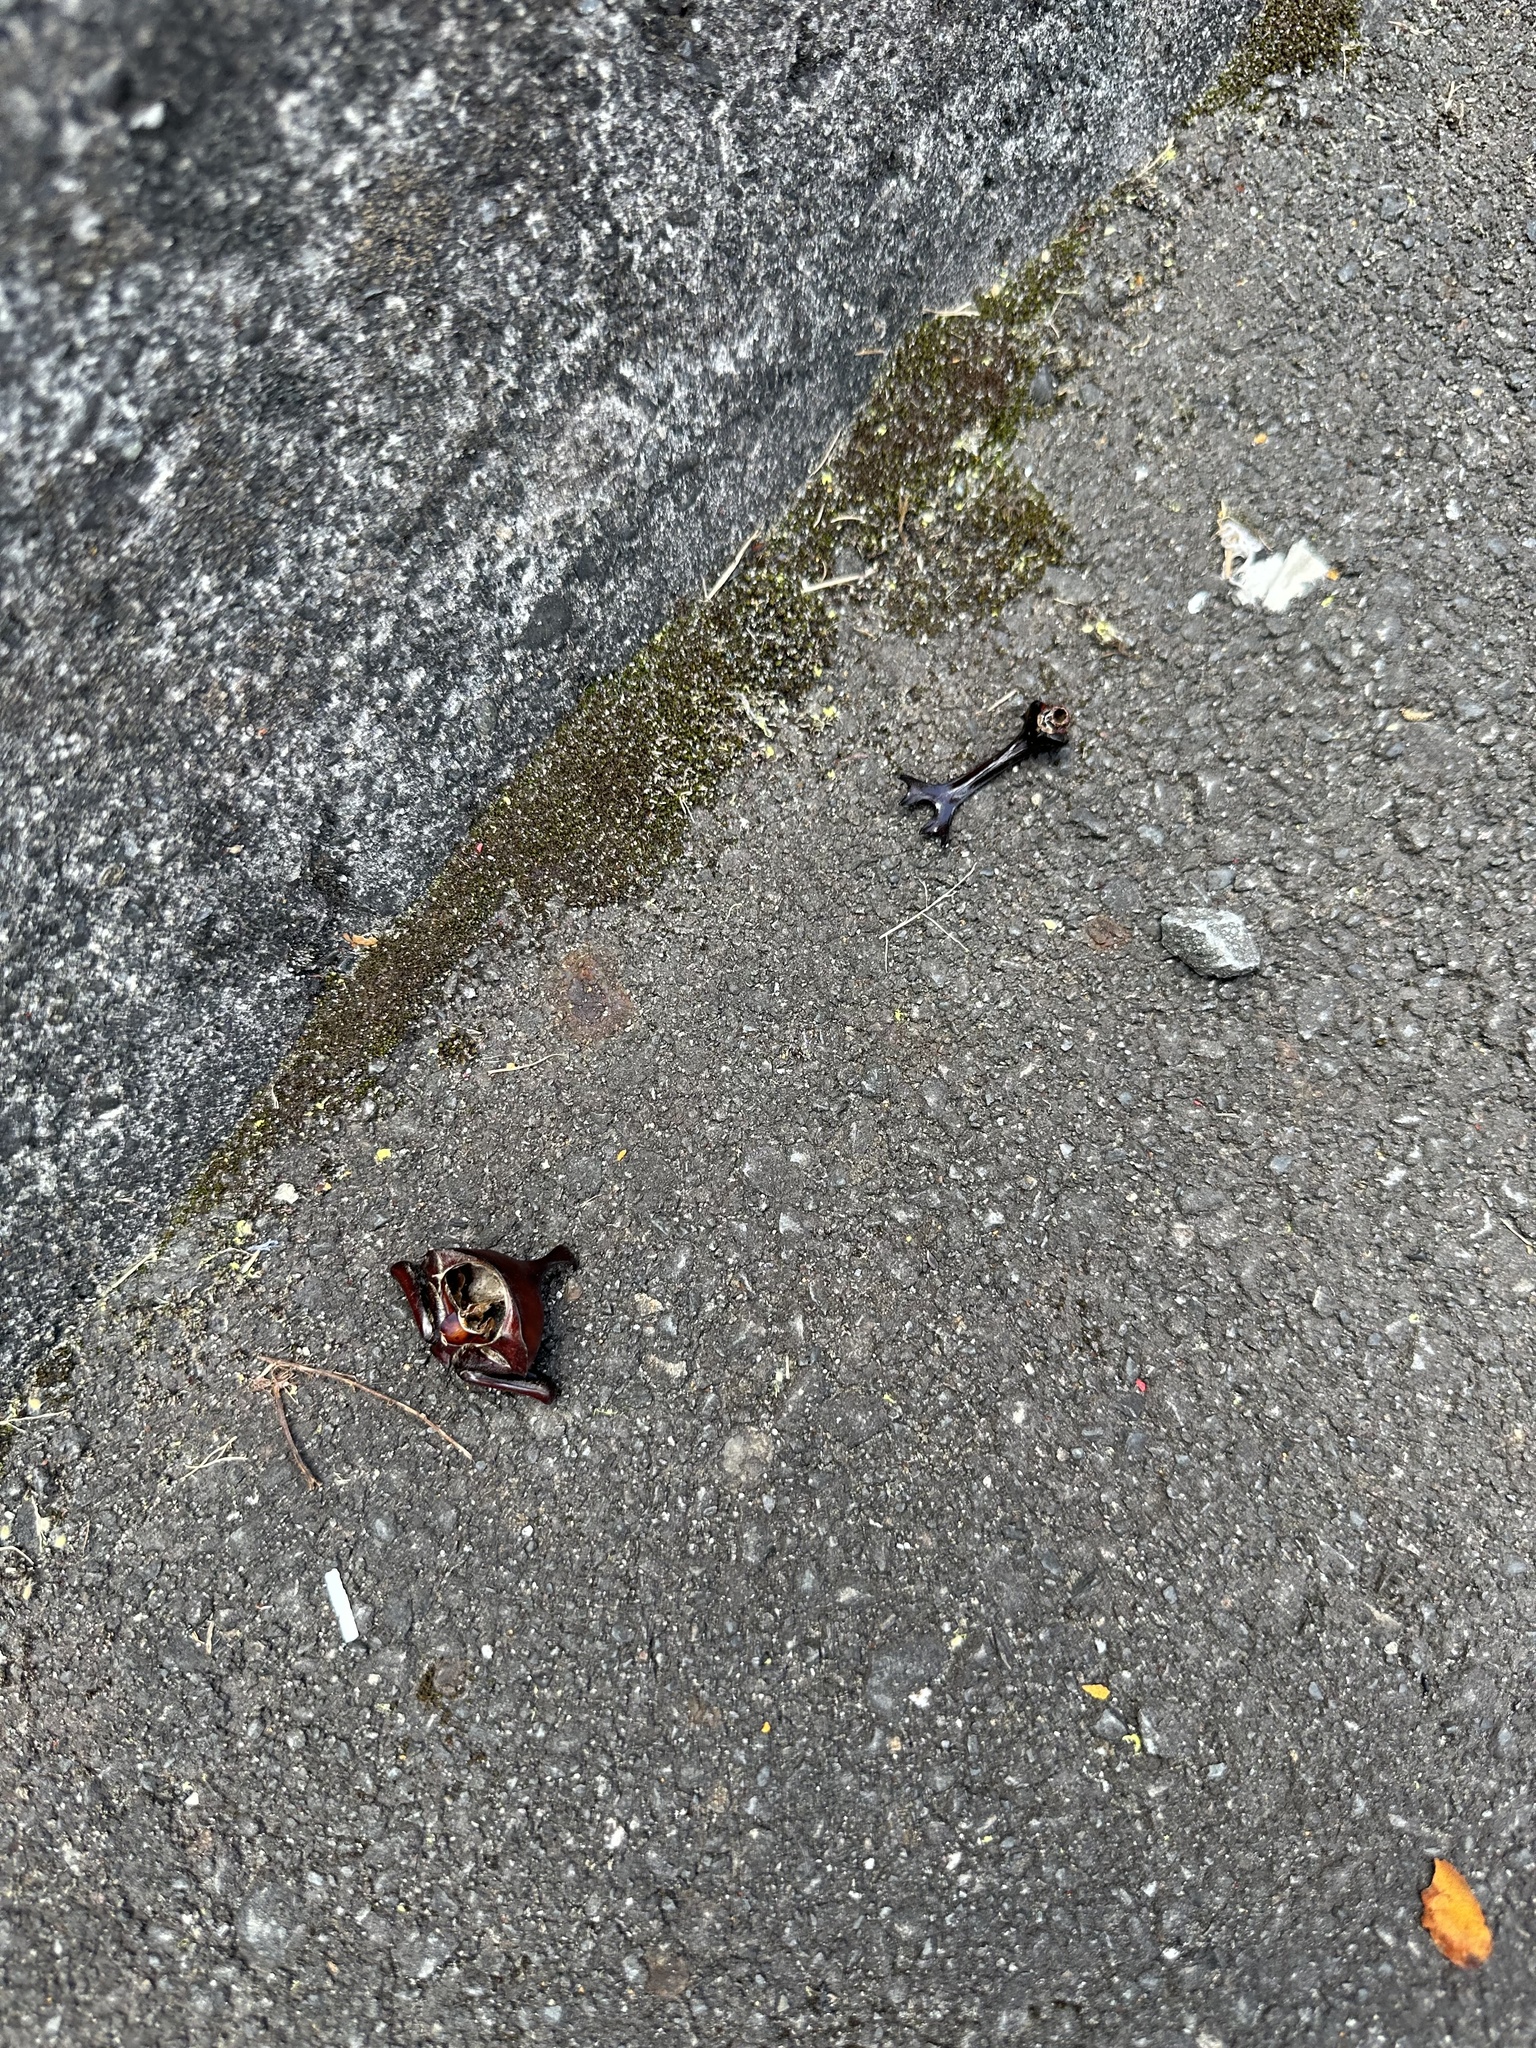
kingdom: Animalia
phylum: Arthropoda
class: Insecta
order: Coleoptera
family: Scarabaeidae
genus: Trypoxylus
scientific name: Trypoxylus dichotomus
